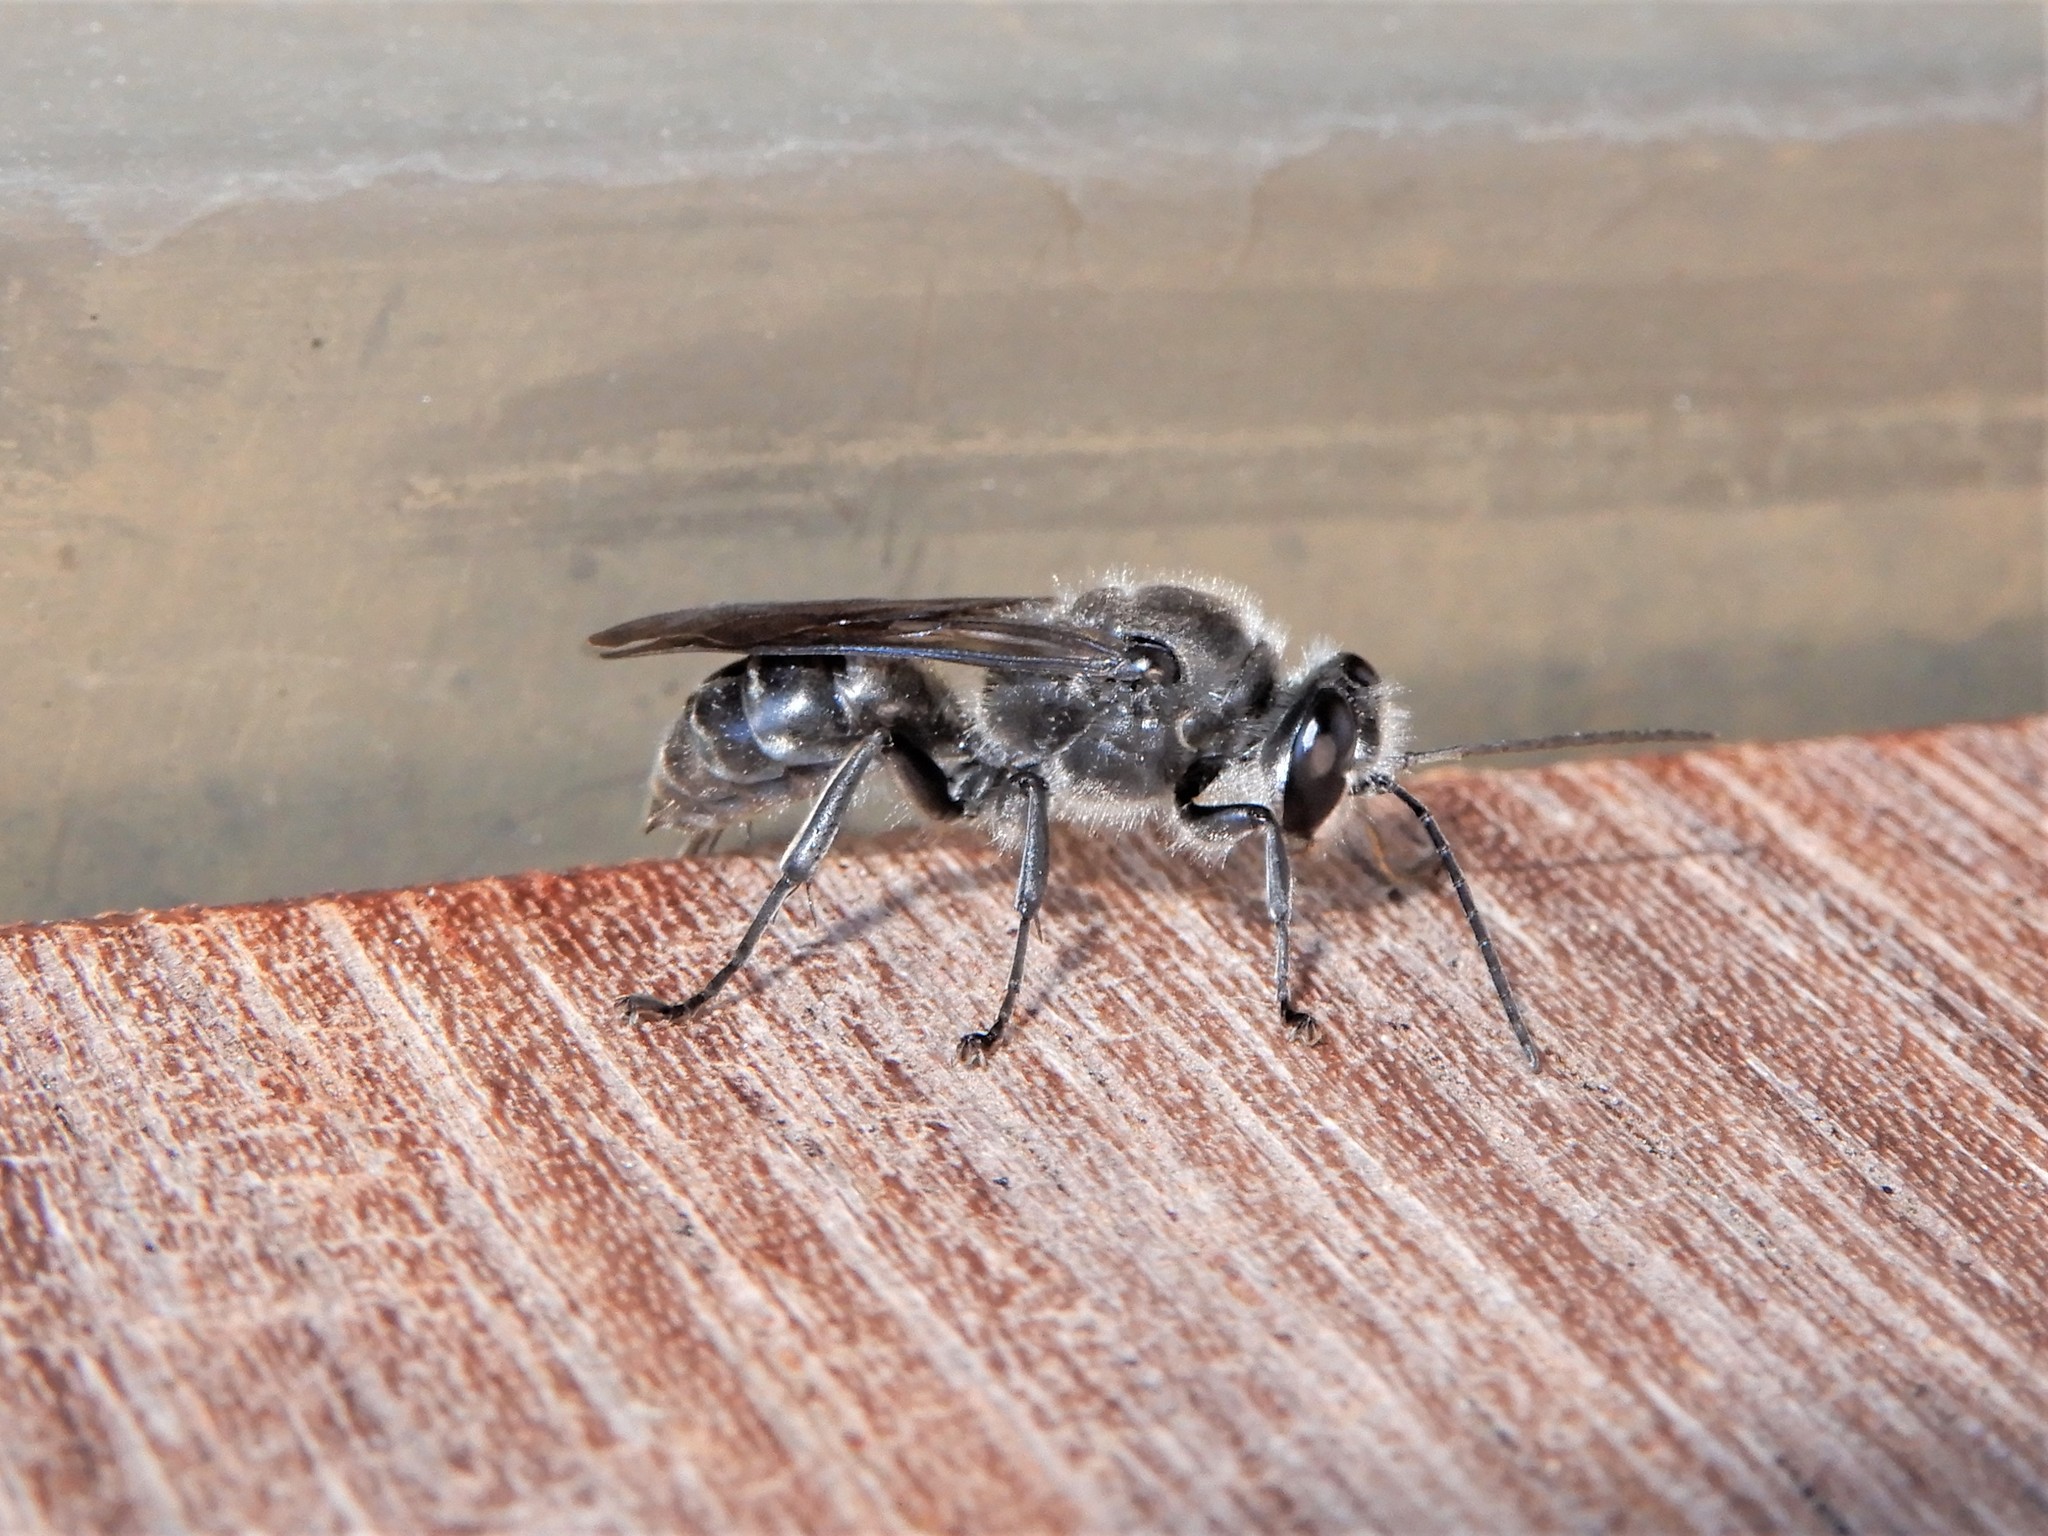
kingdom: Animalia
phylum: Arthropoda
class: Insecta
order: Hymenoptera
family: Crabronidae
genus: Pison
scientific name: Pison spinolae
